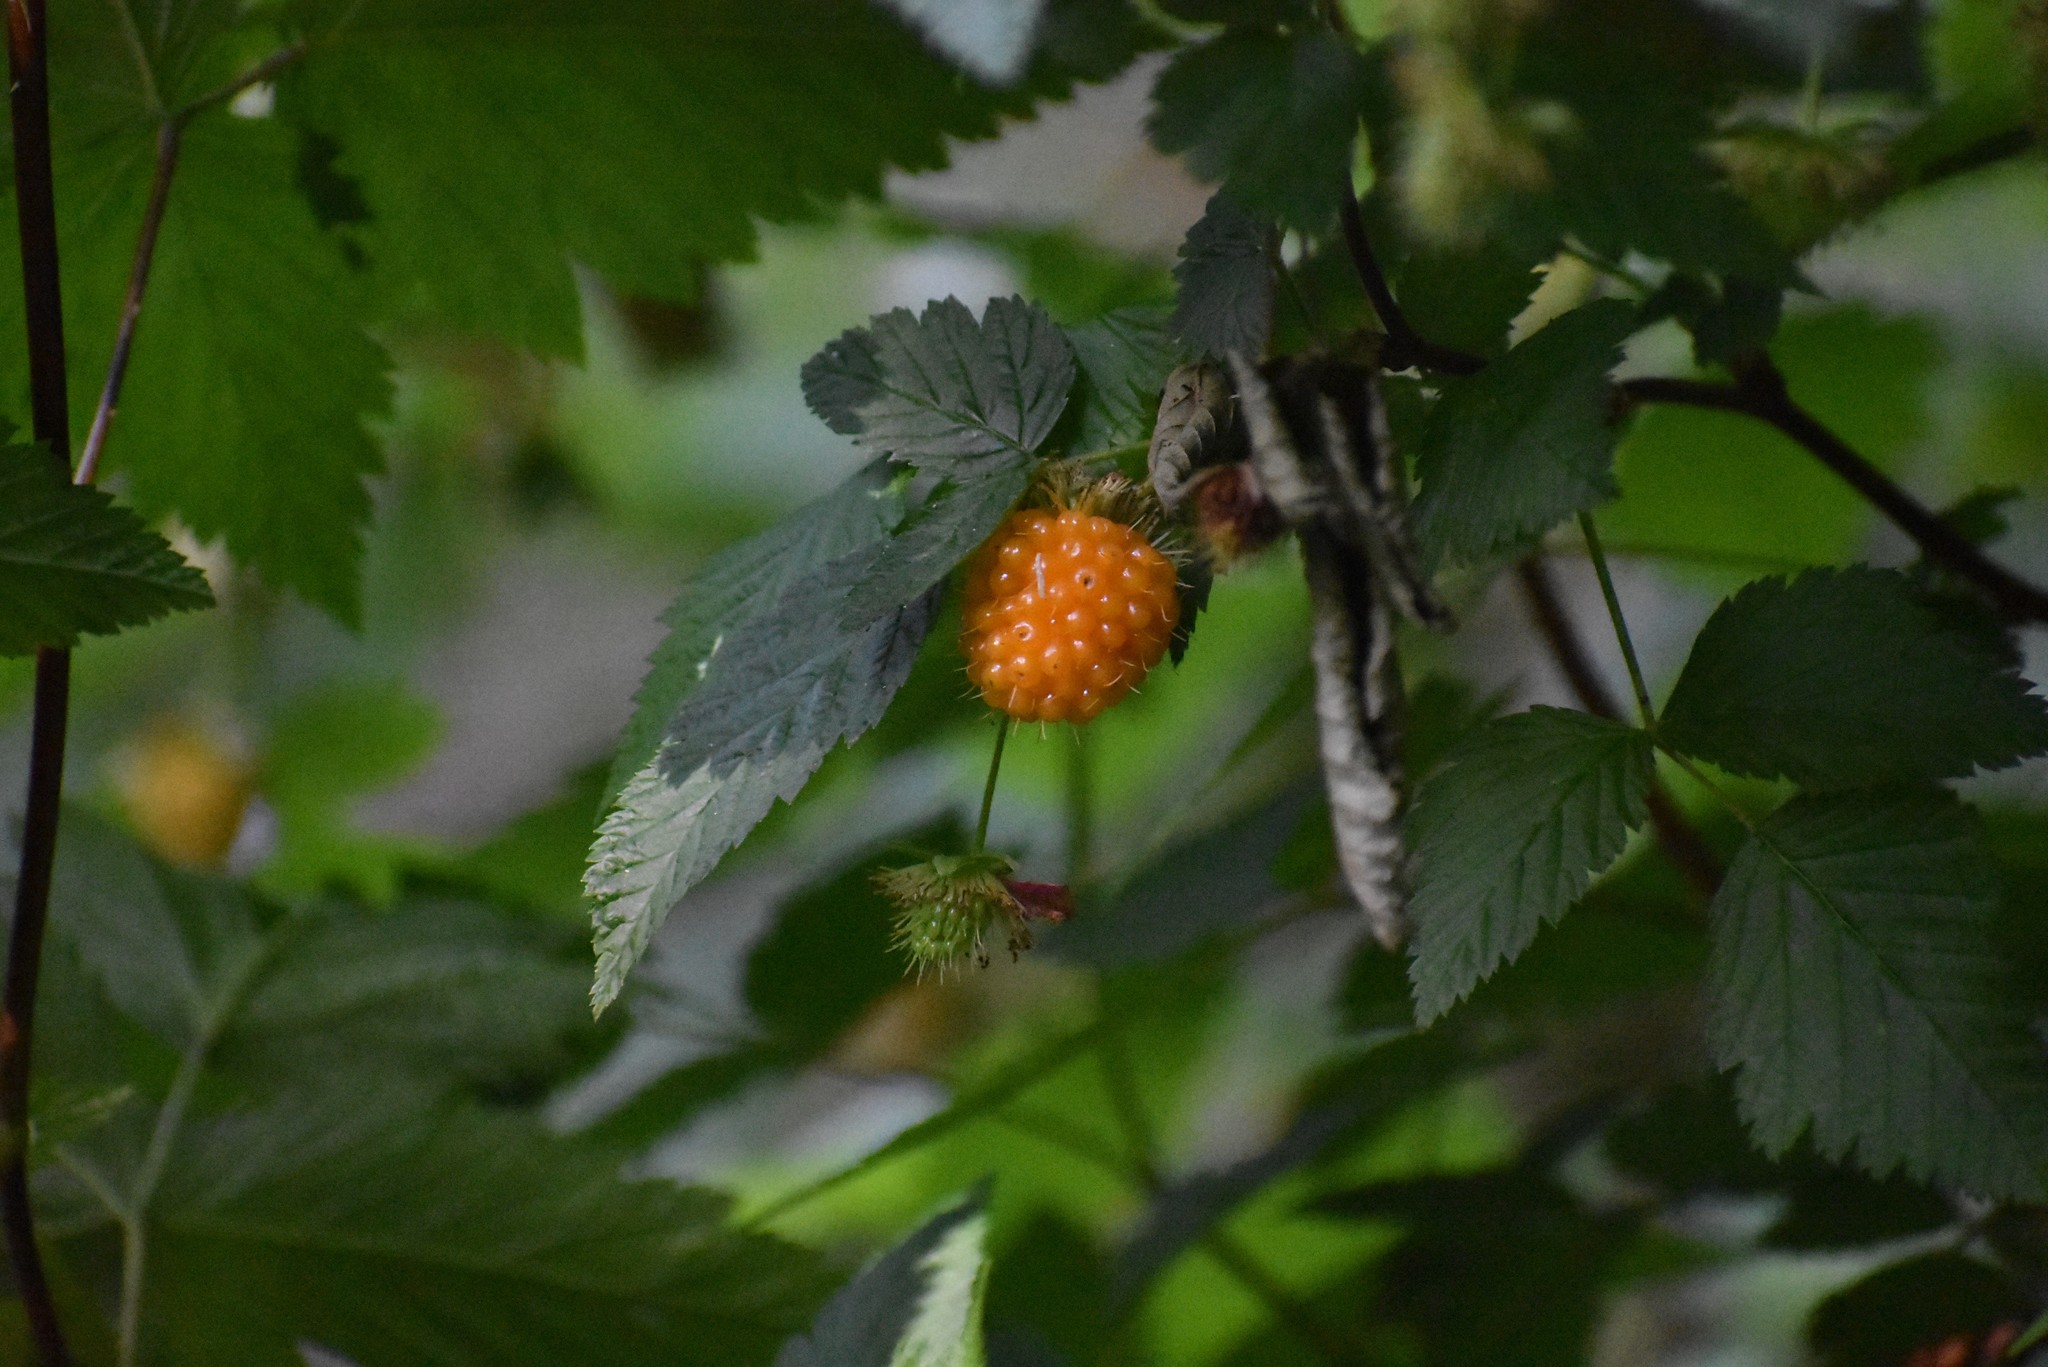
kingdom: Plantae
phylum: Tracheophyta
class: Magnoliopsida
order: Rosales
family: Rosaceae
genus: Rubus
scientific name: Rubus spectabilis
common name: Salmonberry
